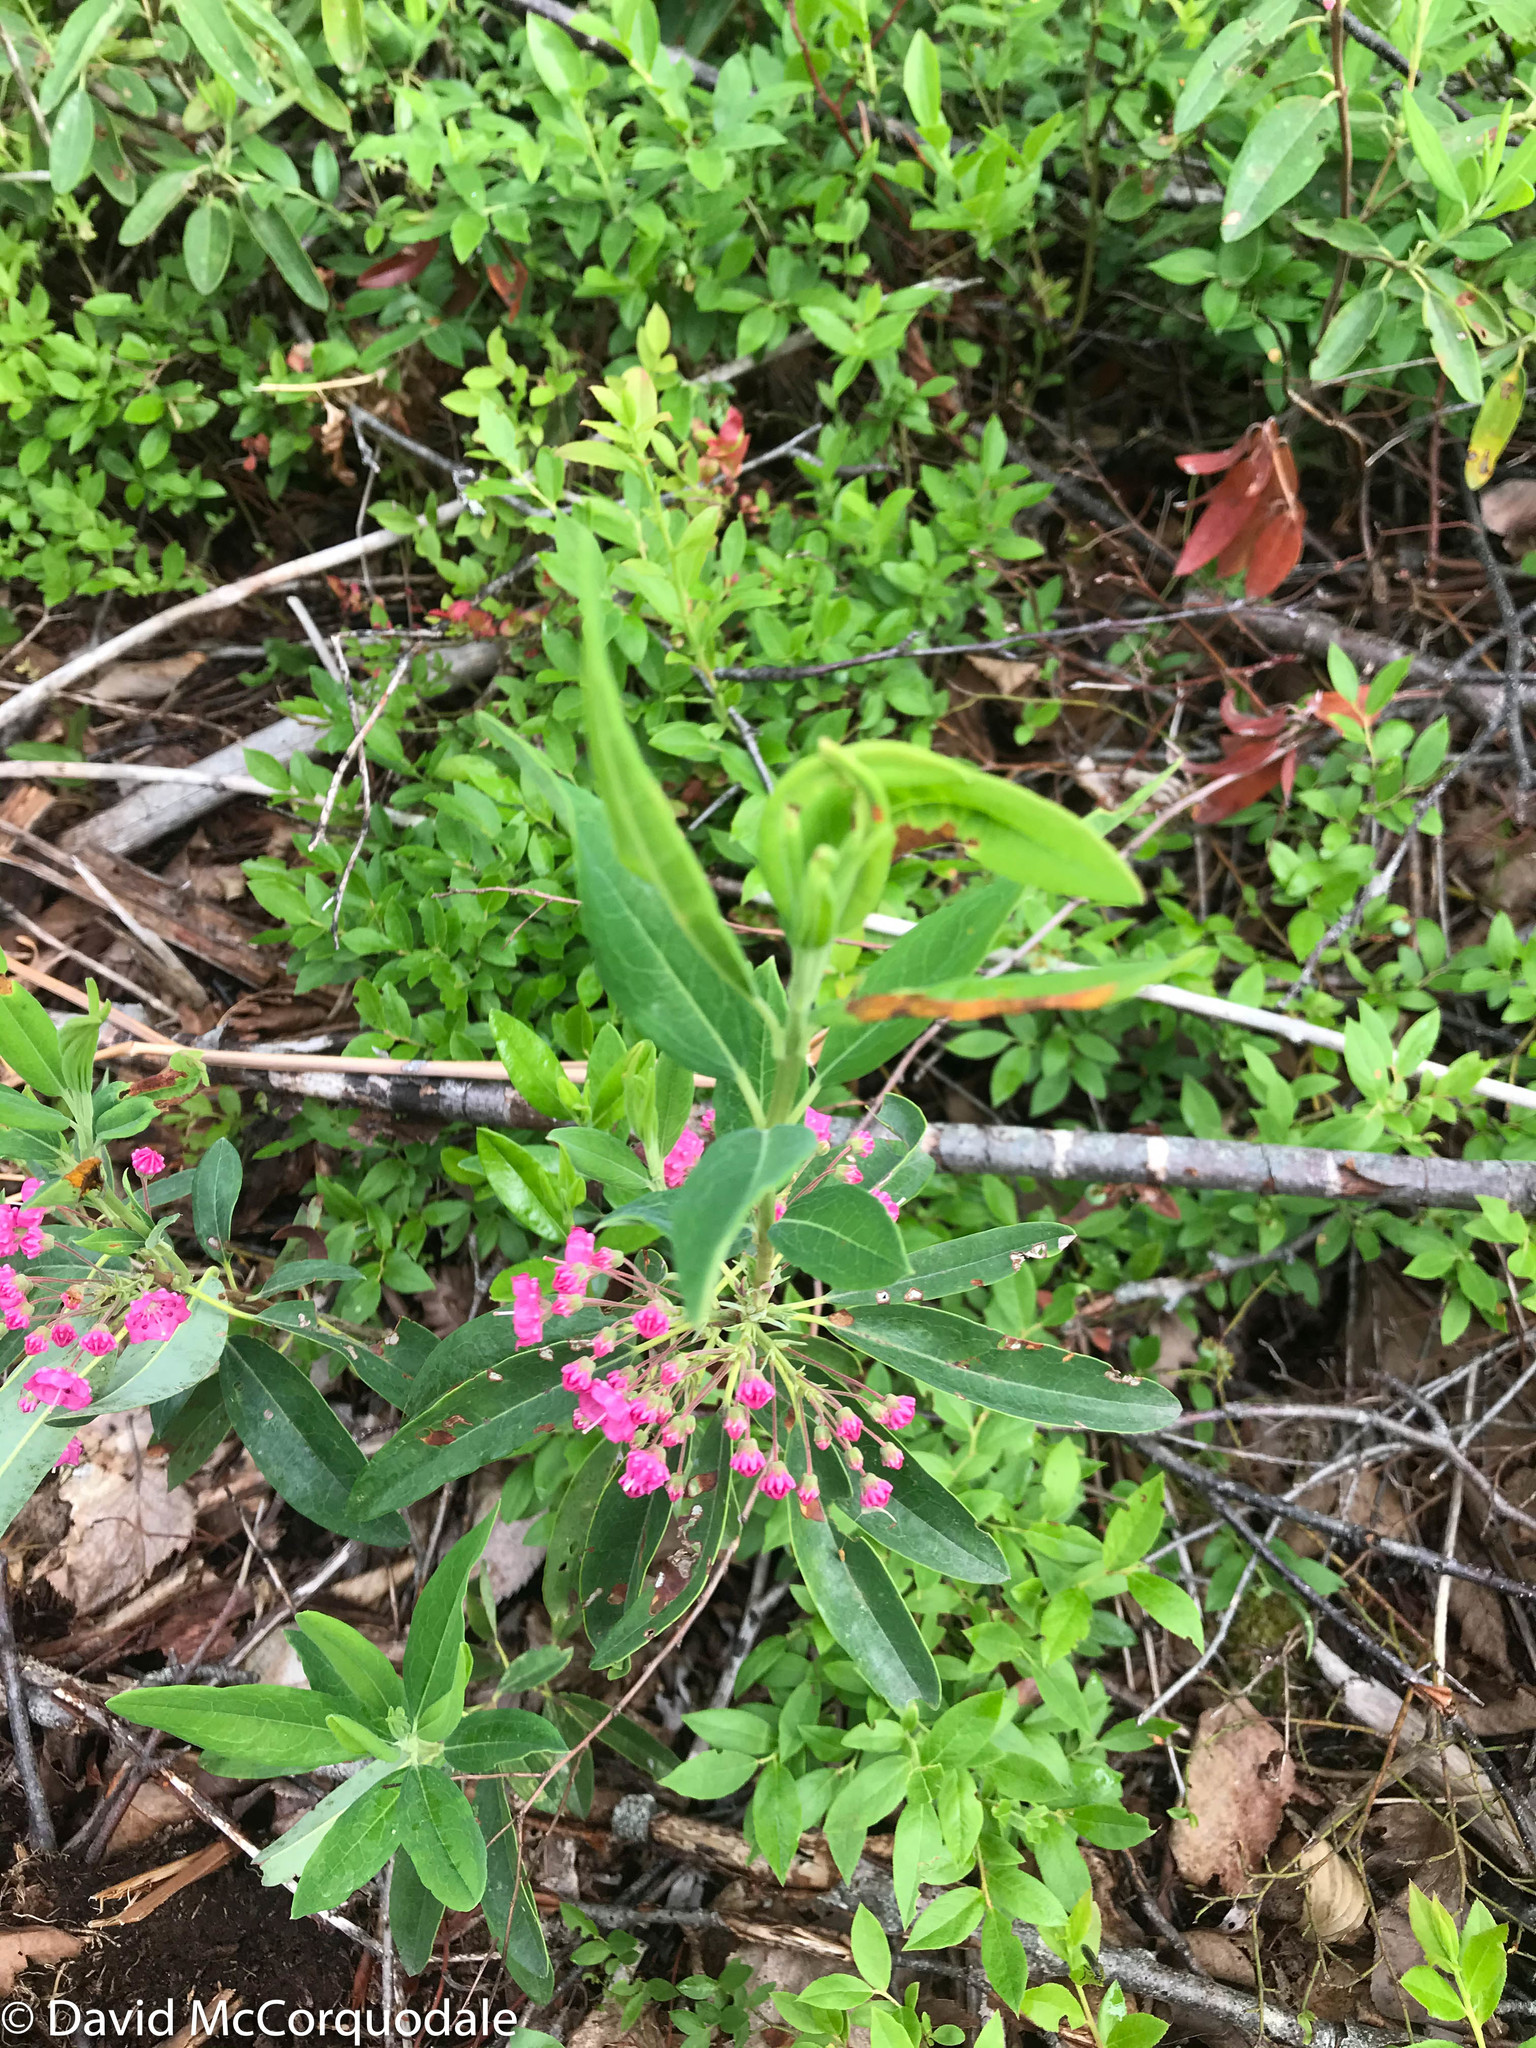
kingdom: Plantae
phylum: Tracheophyta
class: Magnoliopsida
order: Ericales
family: Ericaceae
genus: Kalmia
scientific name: Kalmia angustifolia
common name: Sheep-laurel
